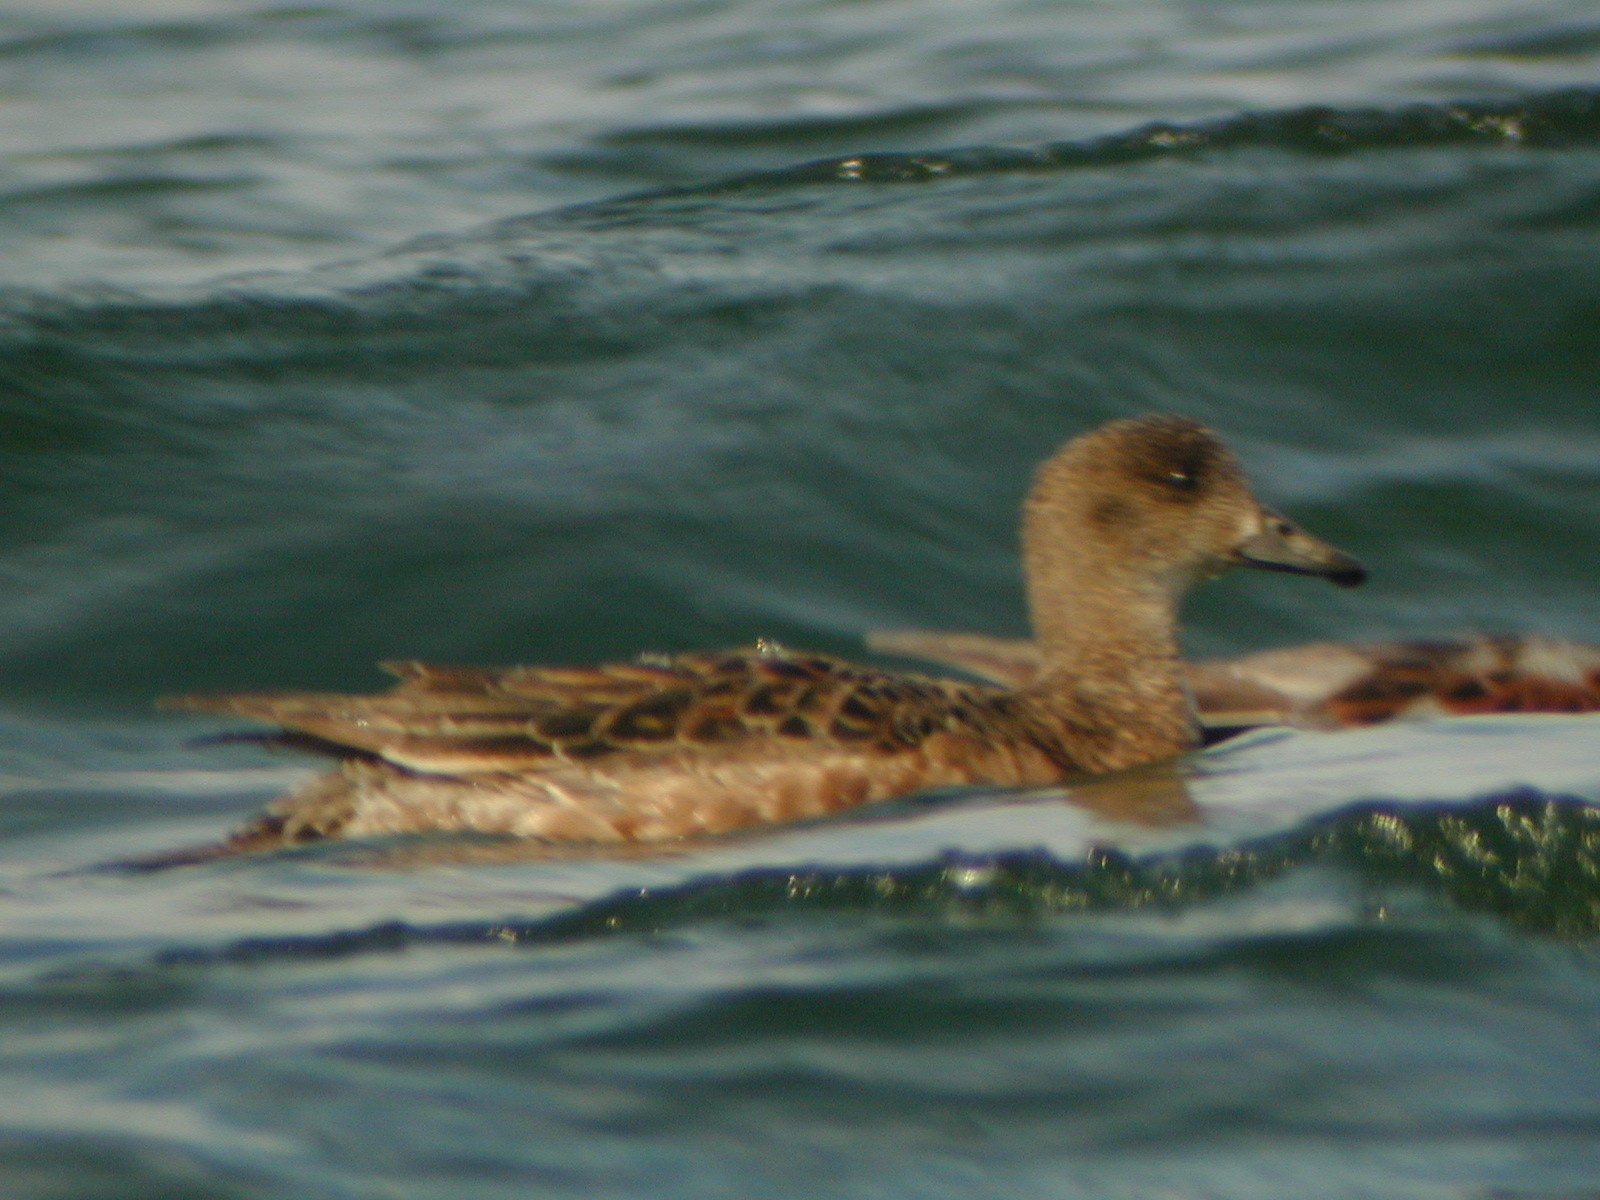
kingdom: Animalia
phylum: Chordata
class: Aves
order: Anseriformes
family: Anatidae
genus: Mareca
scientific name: Mareca penelope
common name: Eurasian wigeon
